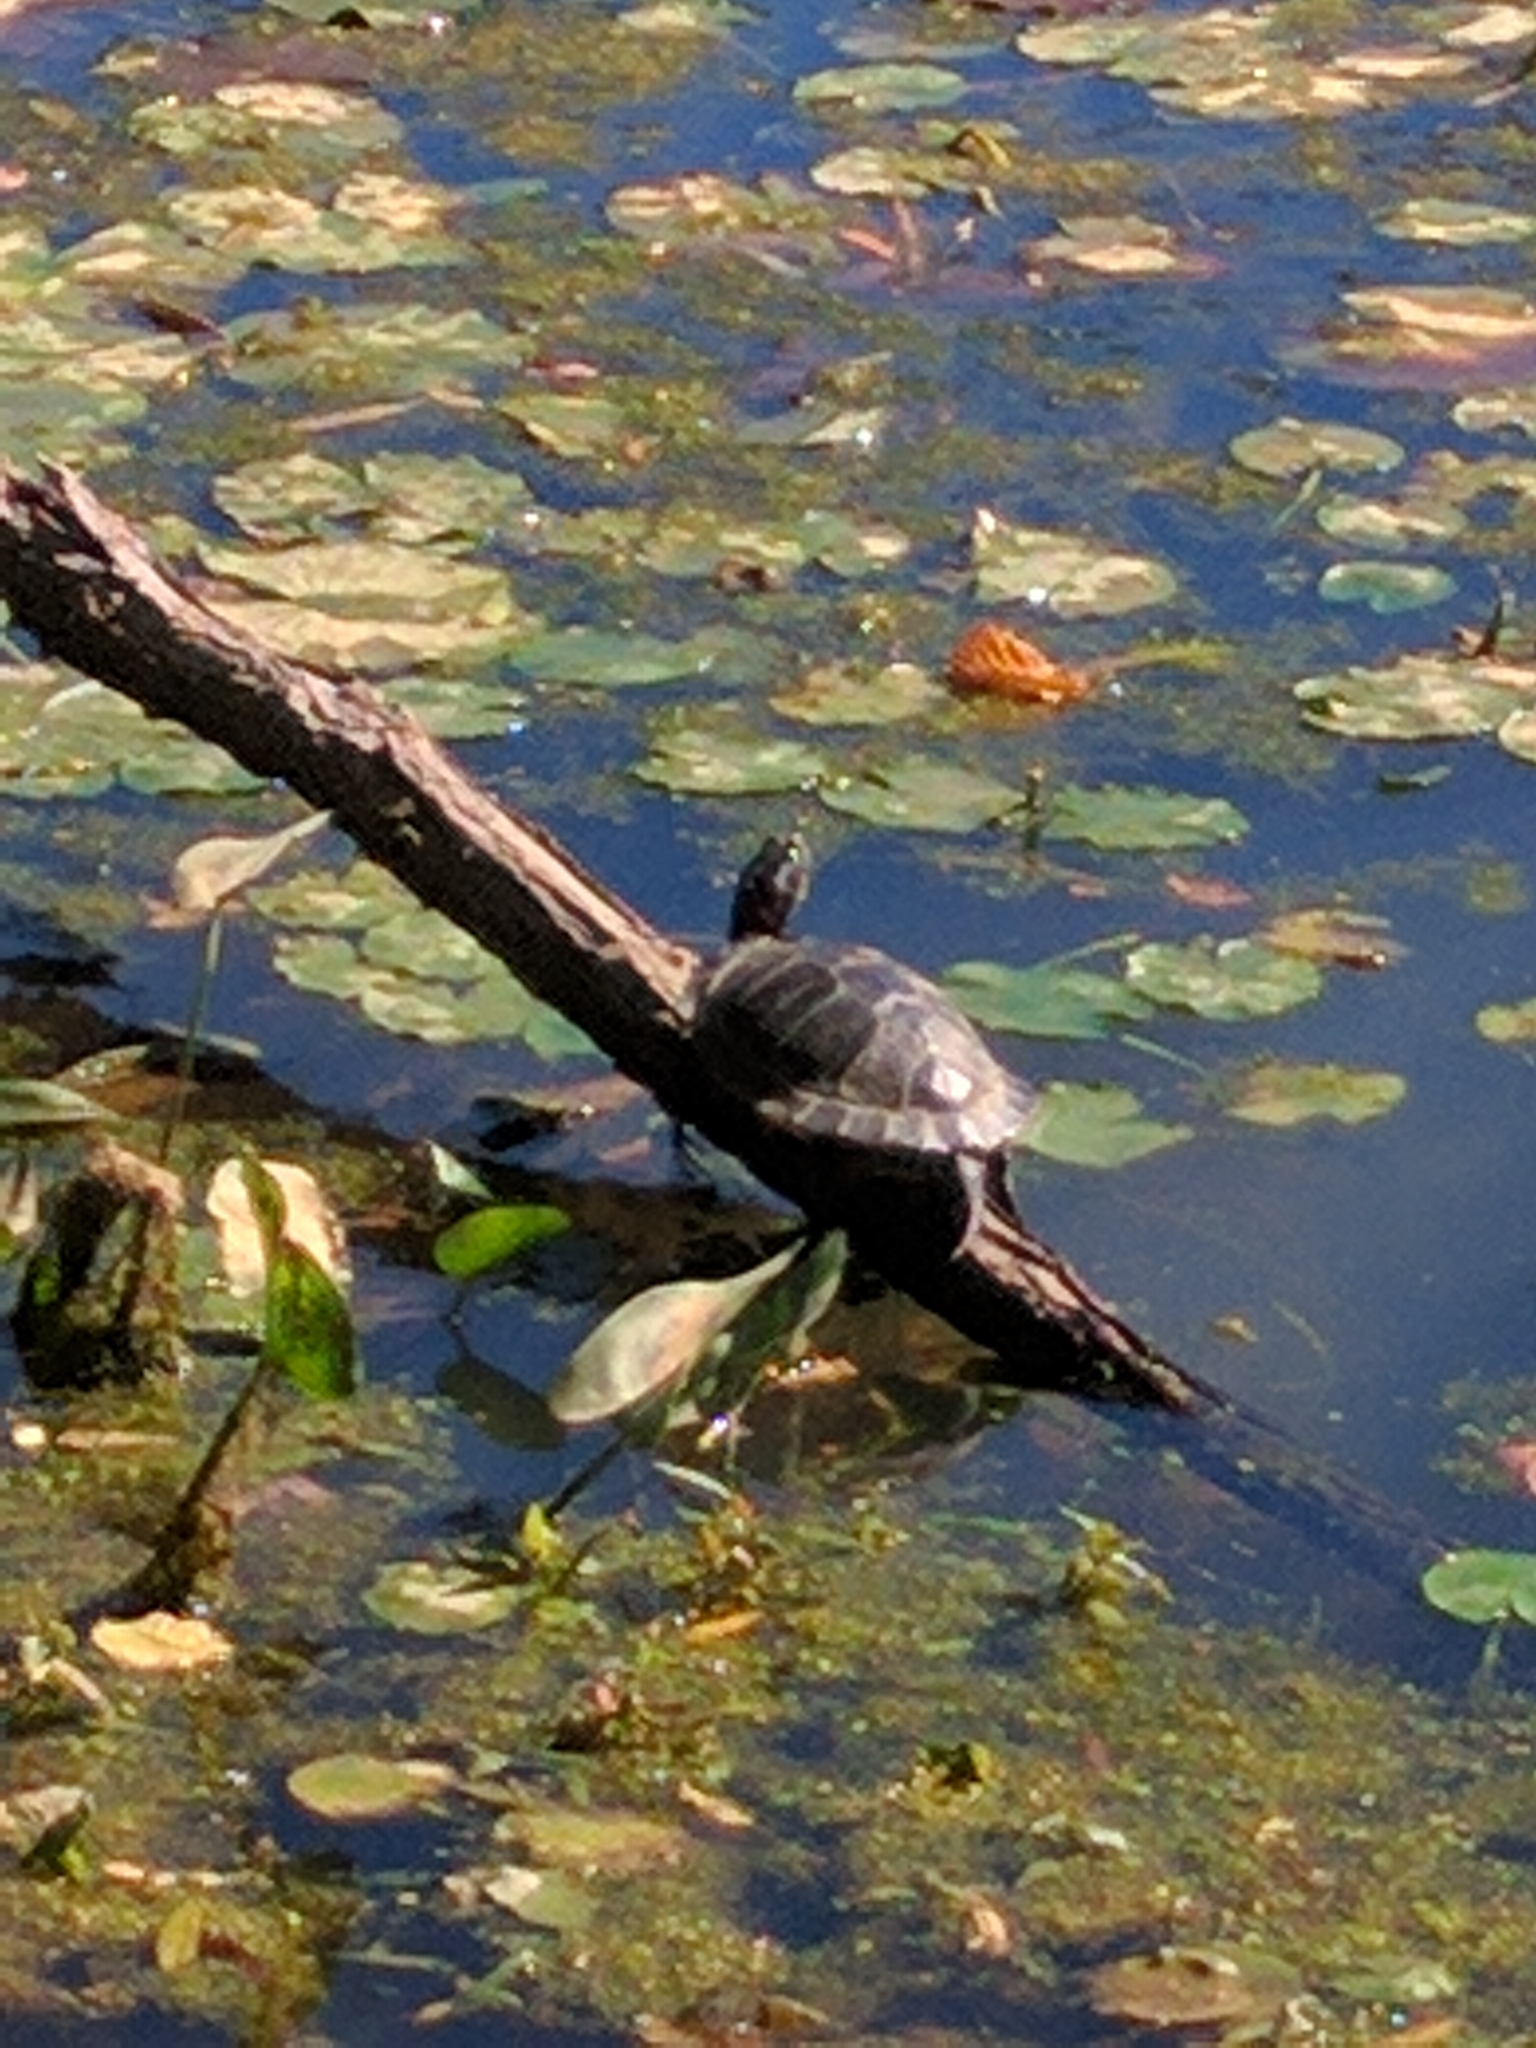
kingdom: Animalia
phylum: Chordata
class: Testudines
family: Emydidae
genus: Trachemys
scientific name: Trachemys scripta
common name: Slider
